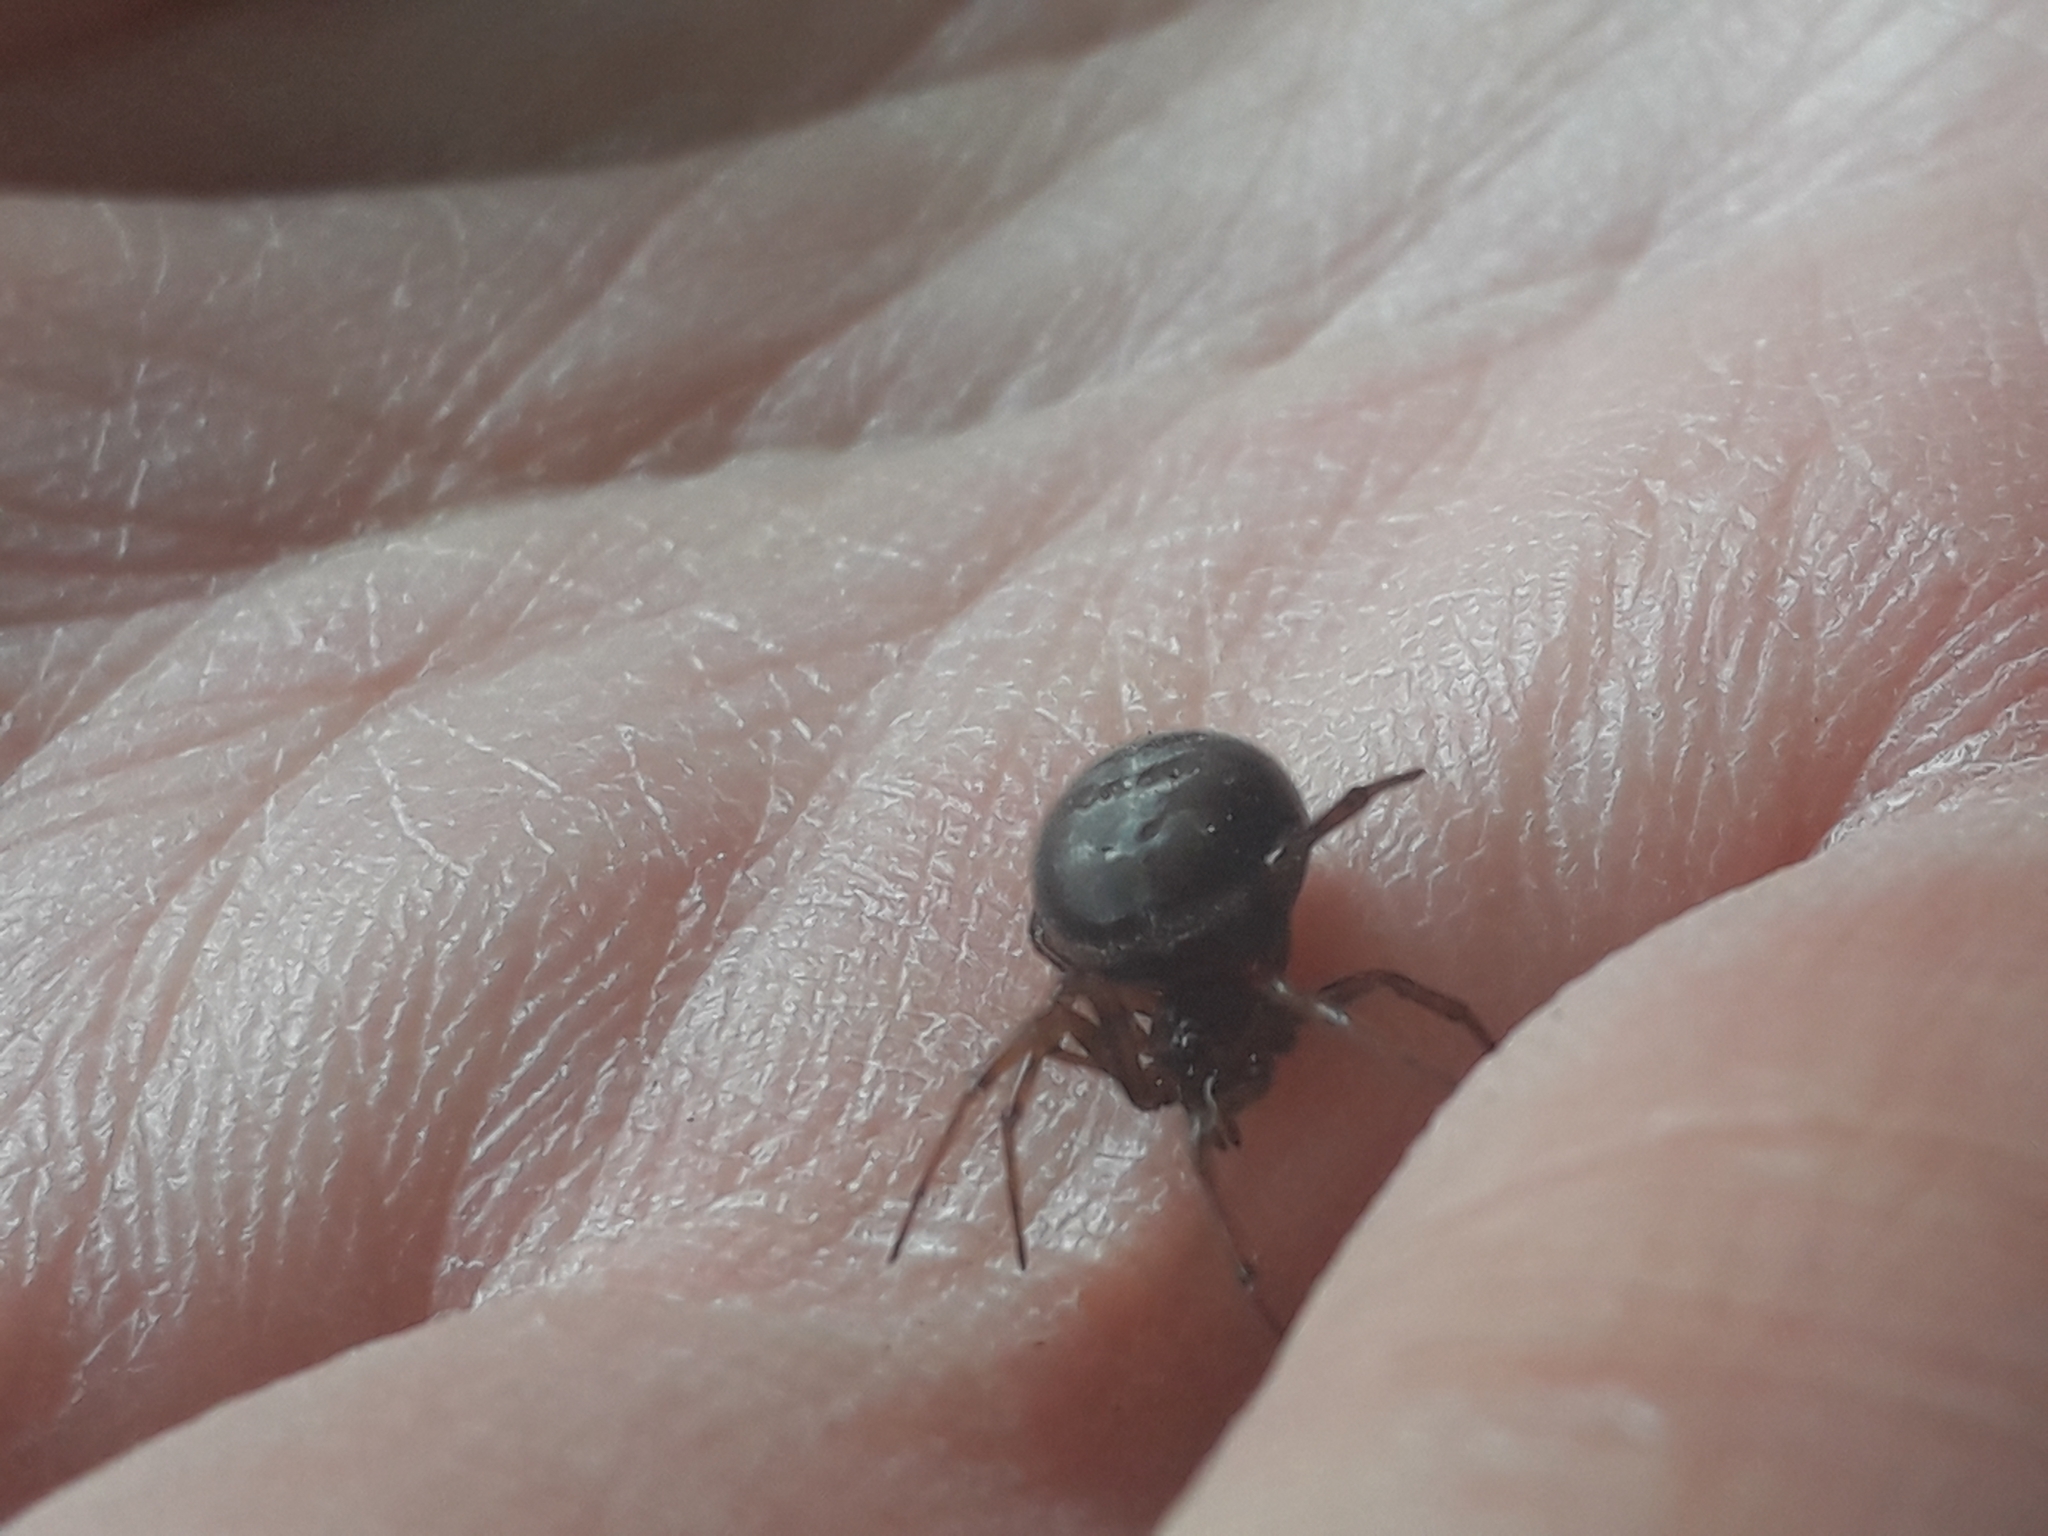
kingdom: Animalia
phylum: Arthropoda
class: Arachnida
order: Araneae
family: Theridiidae
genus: Steatoda
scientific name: Steatoda bipunctata
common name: False widow
